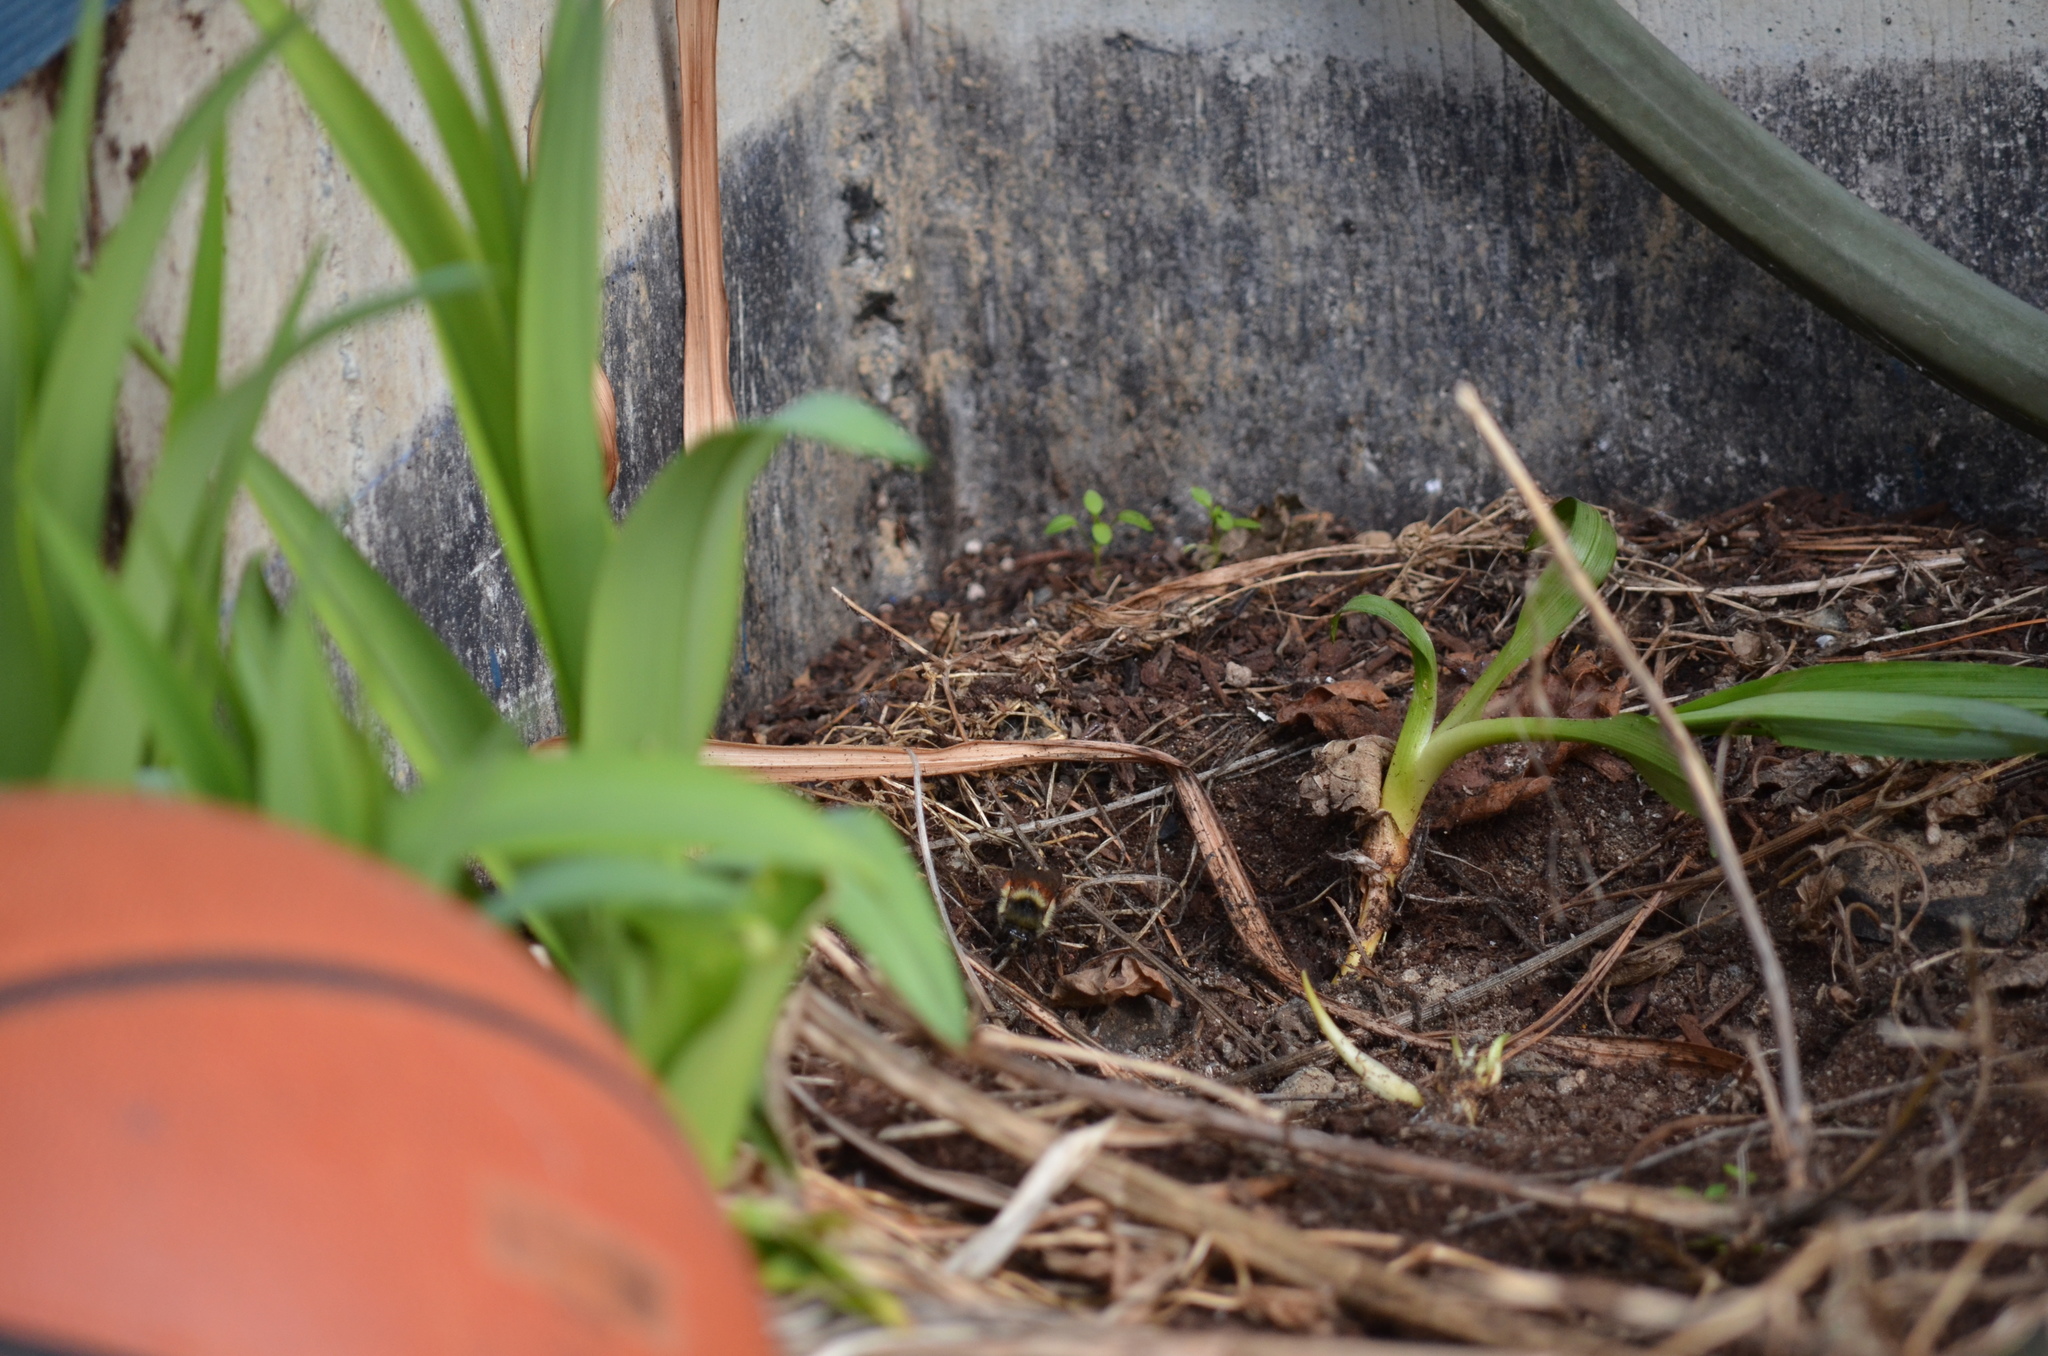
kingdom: Animalia
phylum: Arthropoda
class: Insecta
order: Hymenoptera
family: Apidae
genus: Bombus
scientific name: Bombus melanopygus
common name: Black tail bumble bee
